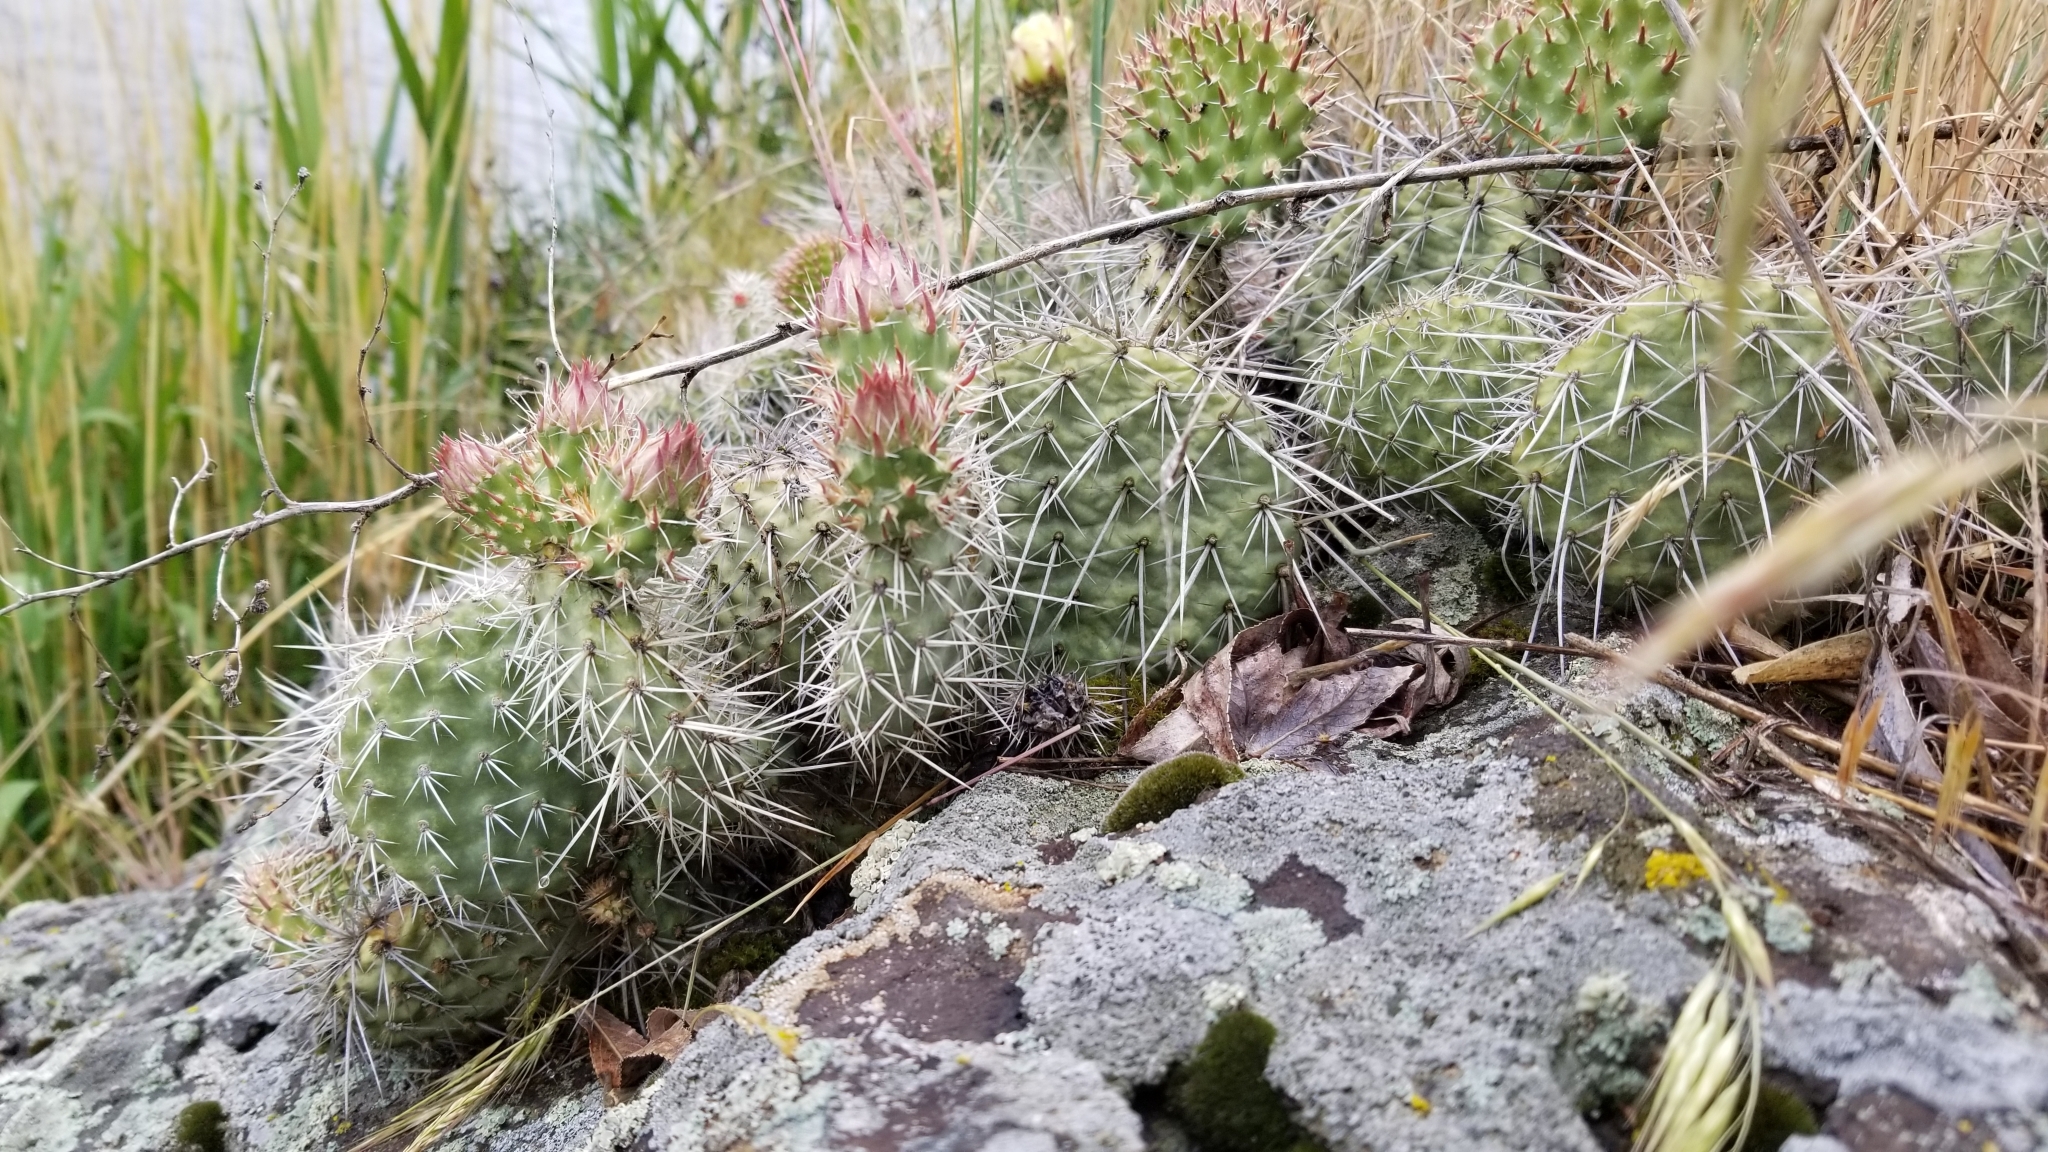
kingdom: Plantae
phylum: Tracheophyta
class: Magnoliopsida
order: Caryophyllales
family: Cactaceae
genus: Opuntia
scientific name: Opuntia polyacantha
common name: Plains prickly-pear
